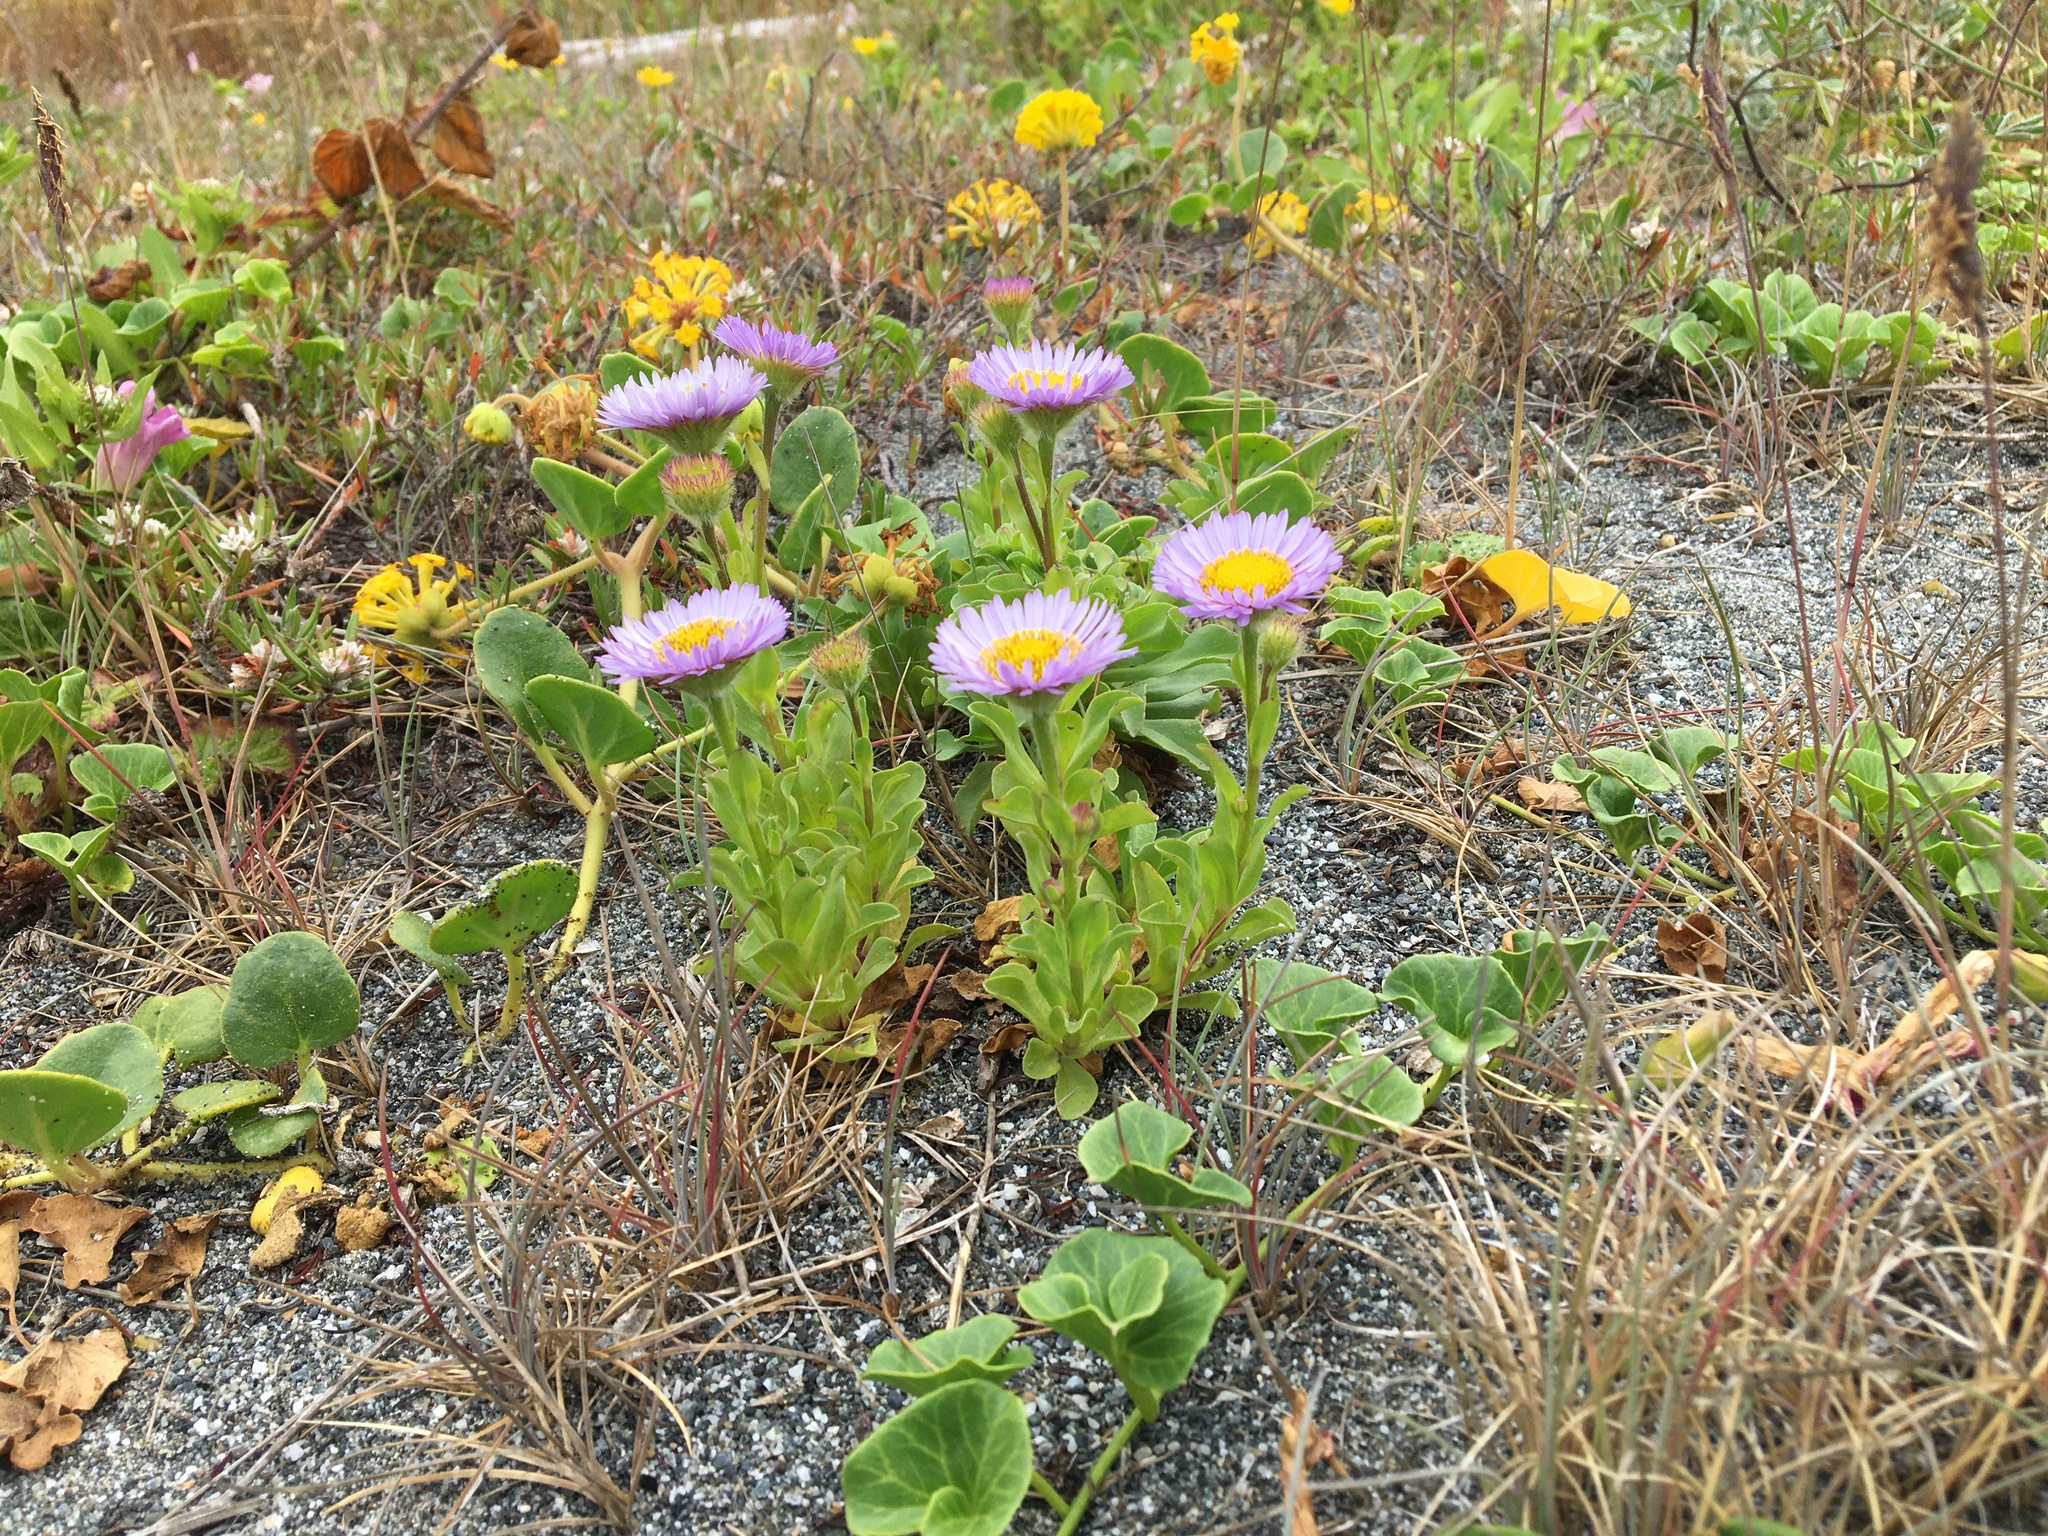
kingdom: Plantae
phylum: Tracheophyta
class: Magnoliopsida
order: Asterales
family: Asteraceae
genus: Erigeron
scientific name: Erigeron glaucus
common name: Seaside daisy
